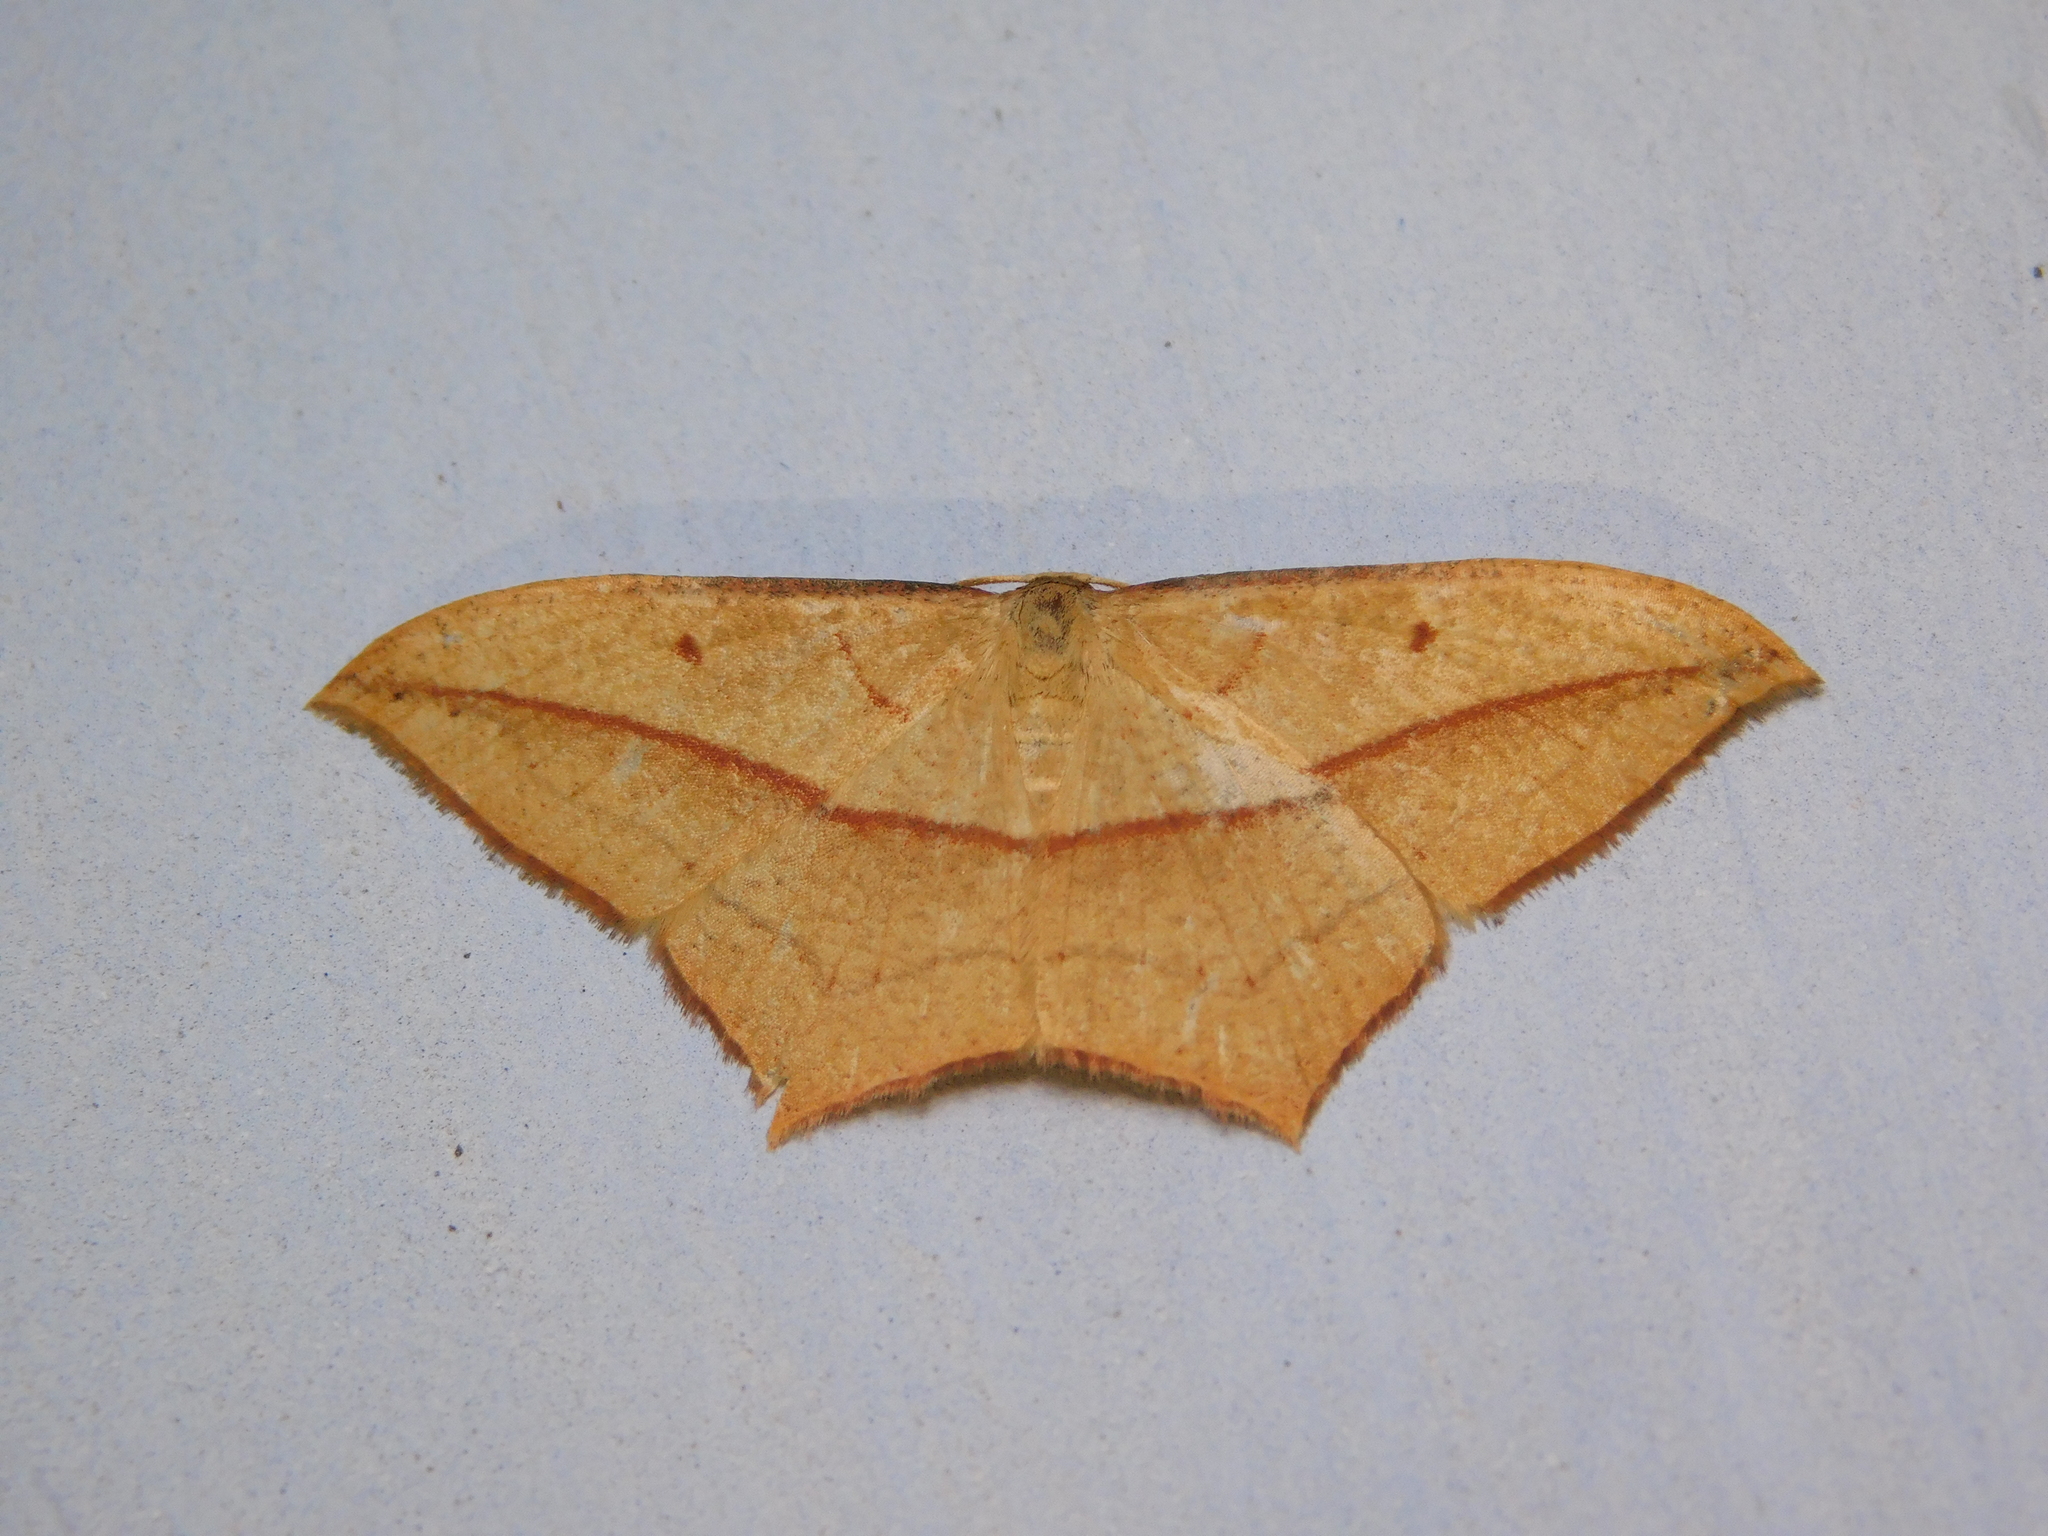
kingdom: Animalia
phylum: Arthropoda
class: Insecta
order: Lepidoptera
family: Geometridae
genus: Timandra
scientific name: Timandra nelsoni
